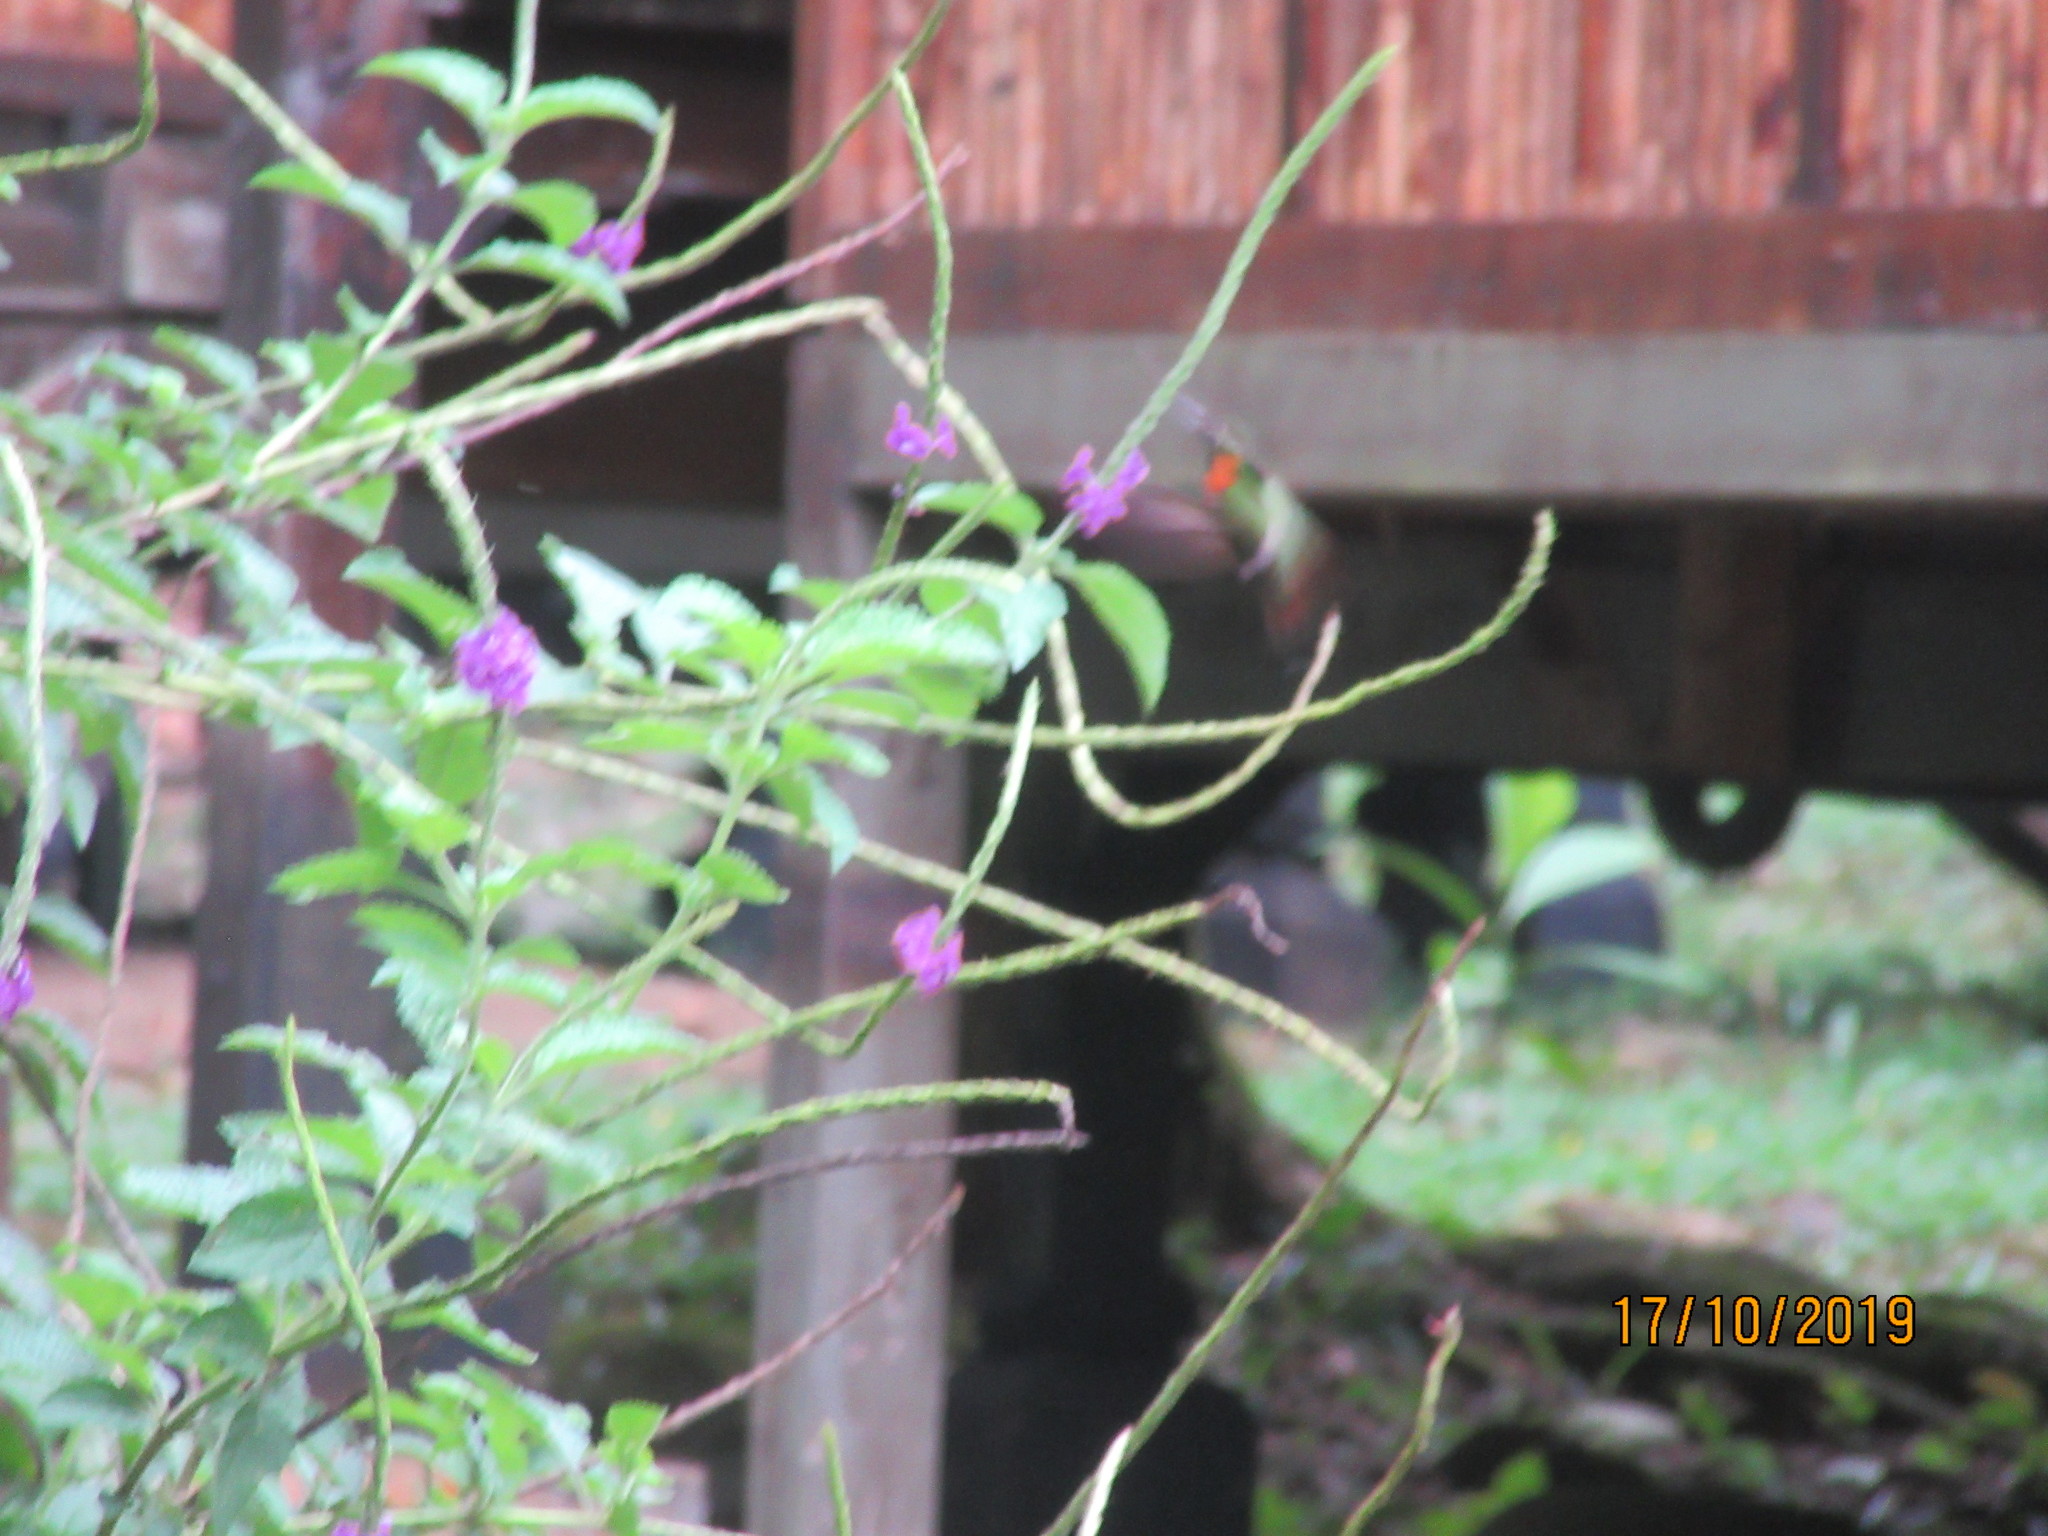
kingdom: Animalia
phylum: Chordata
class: Aves
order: Apodiformes
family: Trochilidae
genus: Heliodoxa
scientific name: Heliodoxa aurescens
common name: Gould's jewelfront
